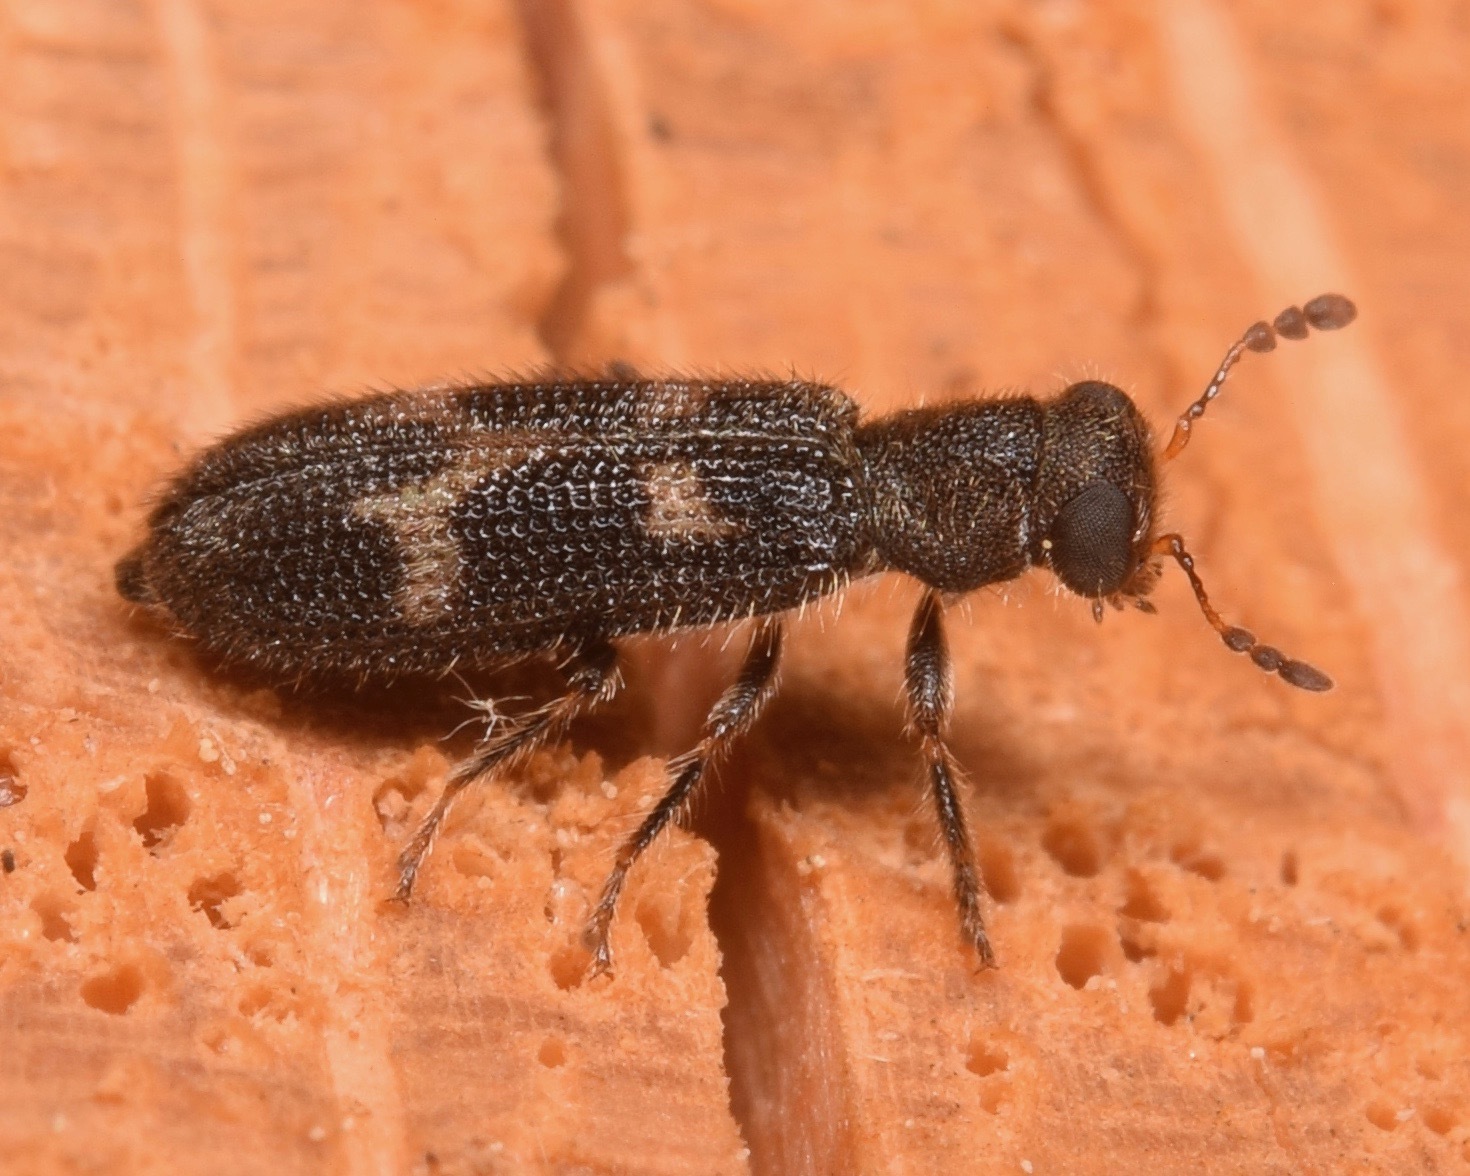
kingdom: Animalia
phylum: Arthropoda
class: Insecta
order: Coleoptera
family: Cleridae
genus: Madoniella
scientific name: Madoniella dislocata
